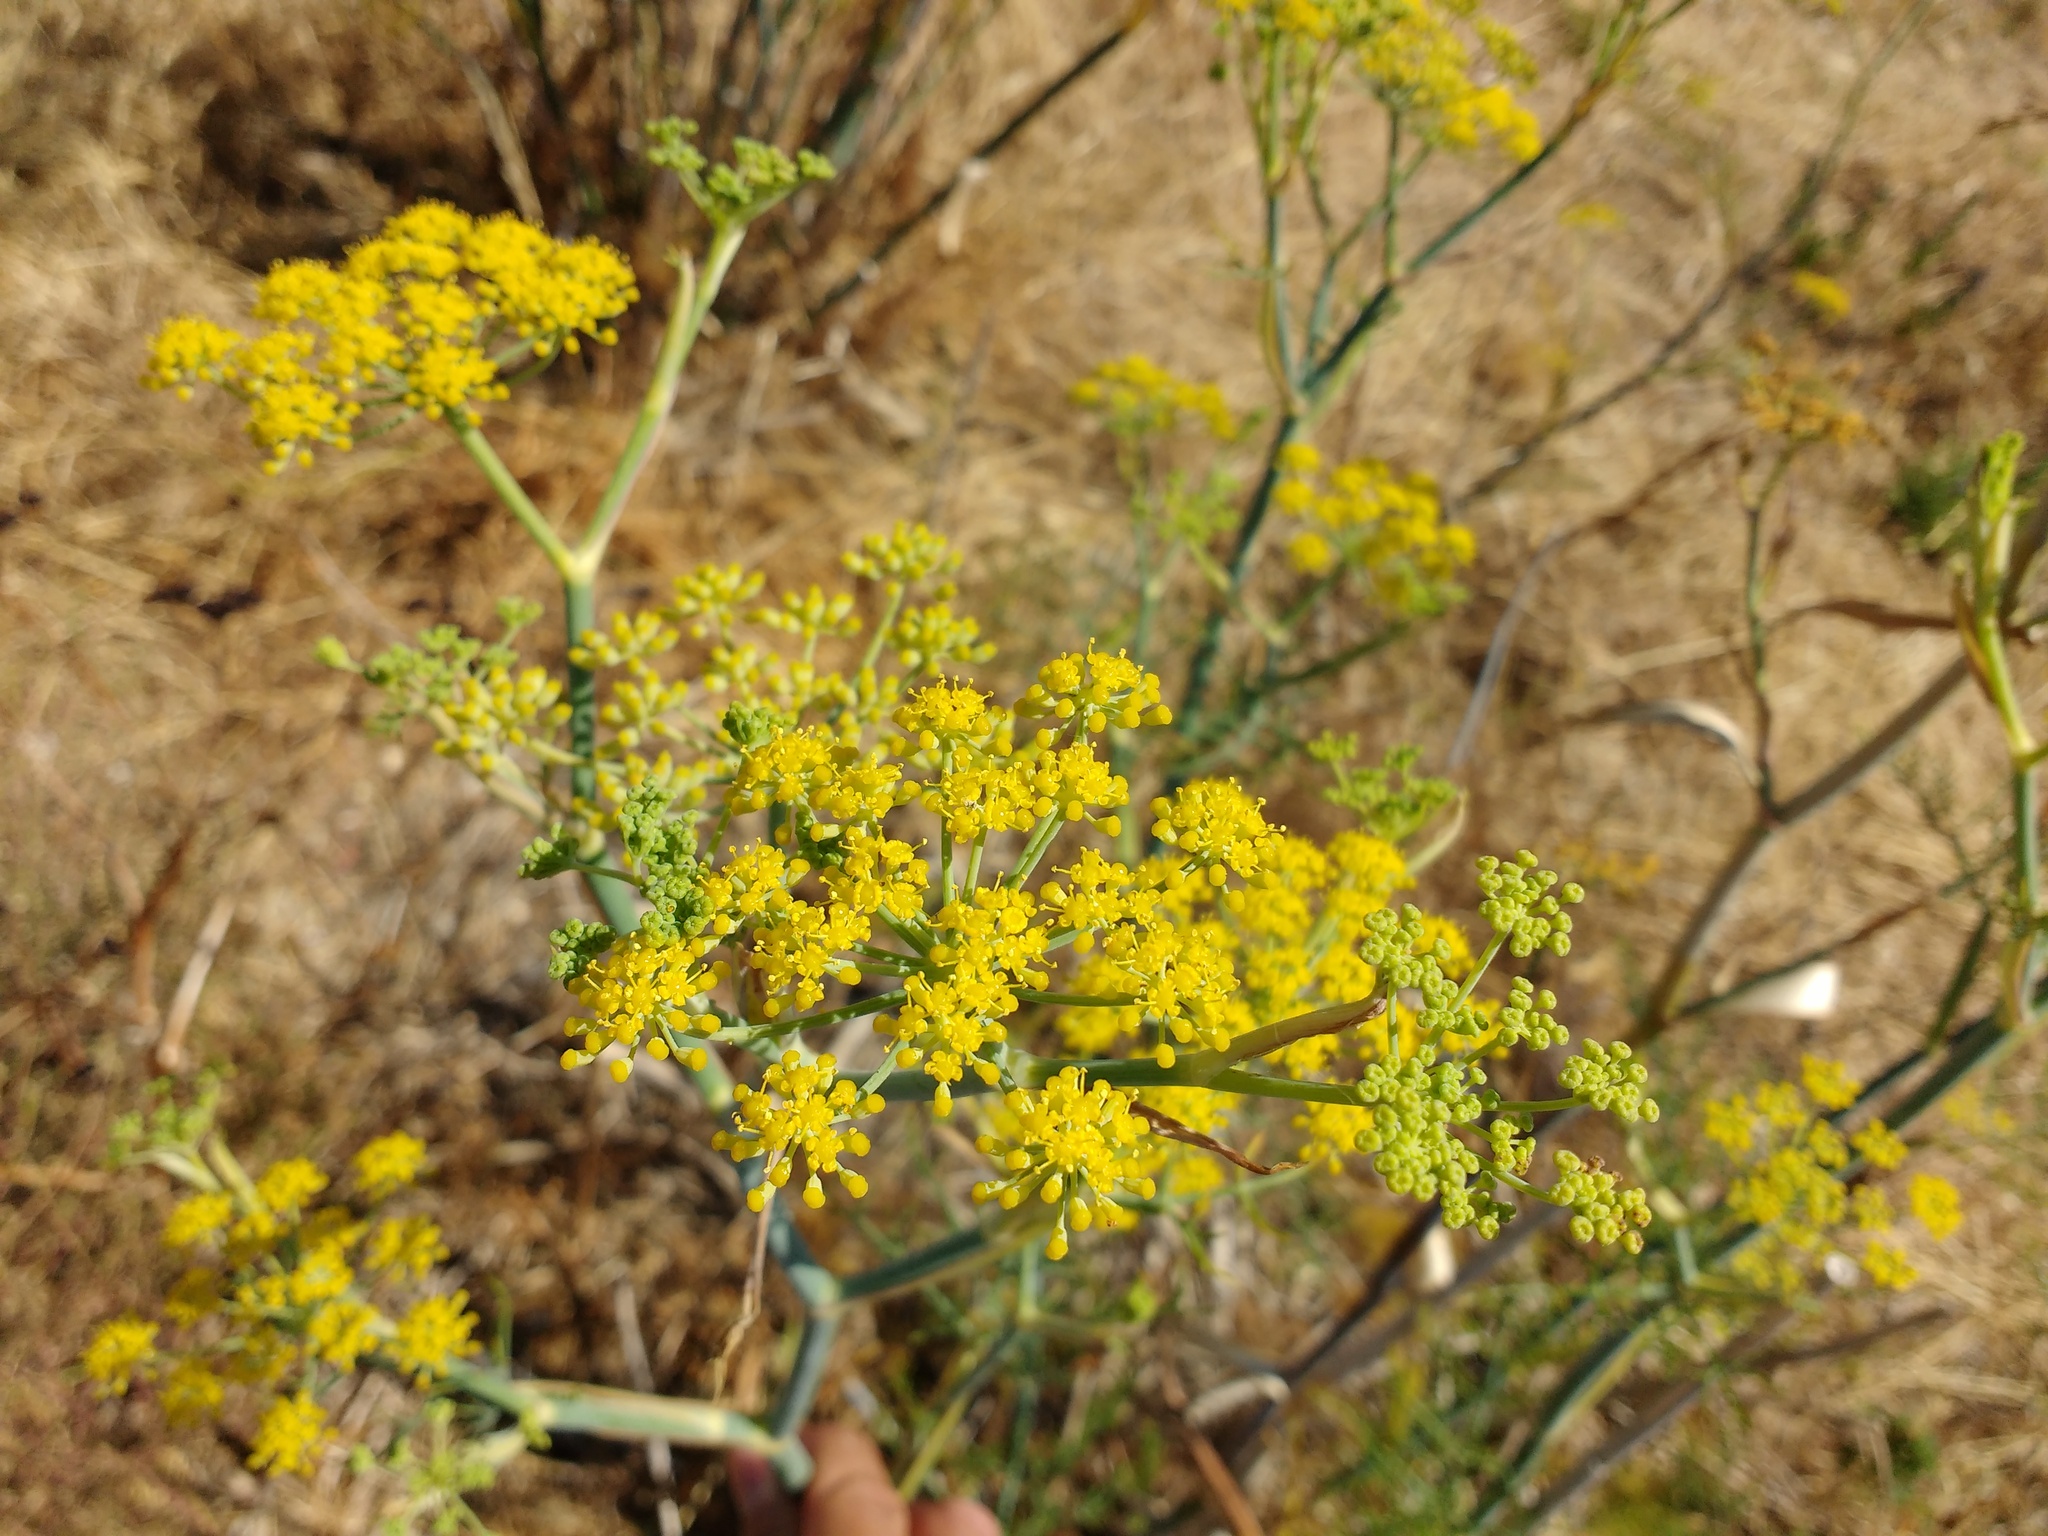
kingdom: Plantae
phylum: Tracheophyta
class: Magnoliopsida
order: Apiales
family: Apiaceae
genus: Foeniculum
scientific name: Foeniculum vulgare
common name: Fennel
